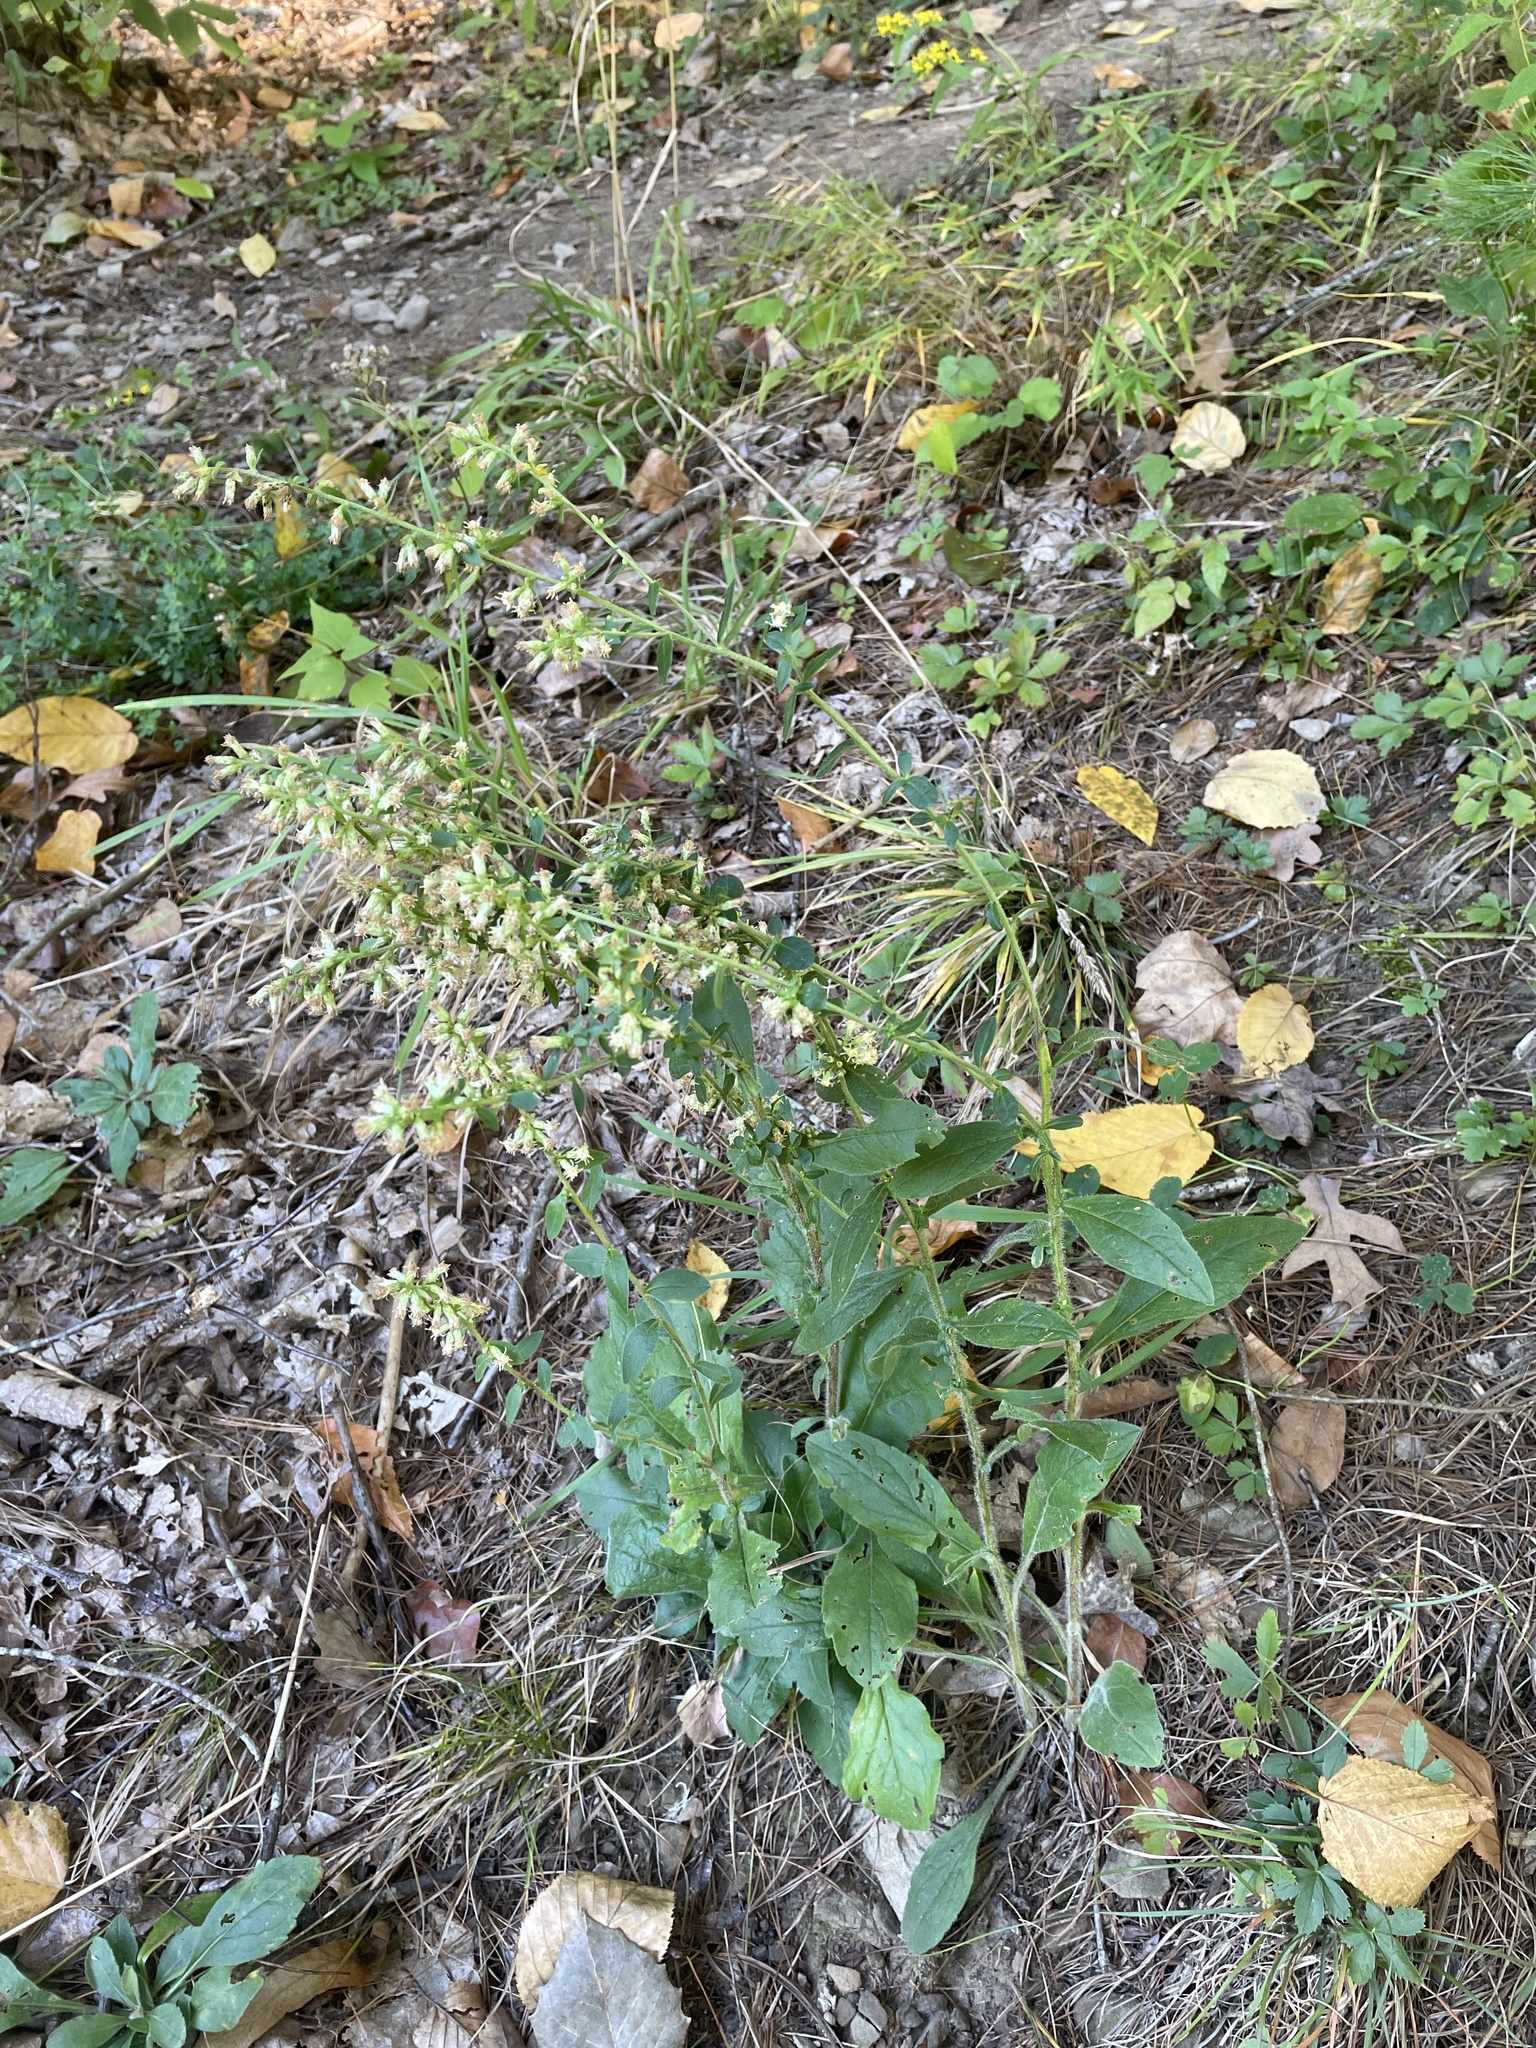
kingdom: Plantae
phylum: Tracheophyta
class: Magnoliopsida
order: Asterales
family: Asteraceae
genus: Solidago
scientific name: Solidago bicolor
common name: Silverrod
